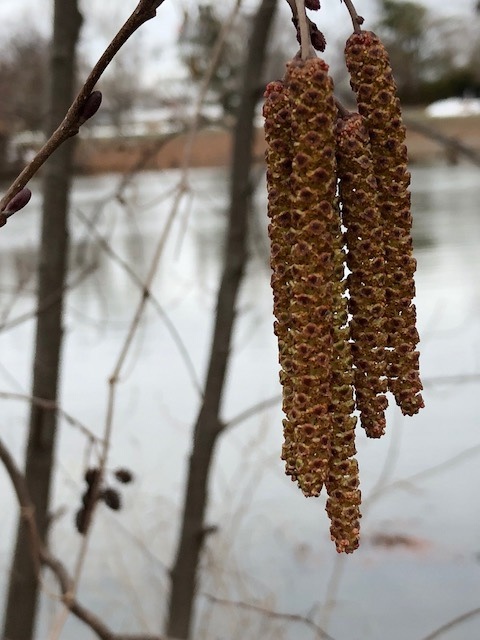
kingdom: Plantae
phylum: Tracheophyta
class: Magnoliopsida
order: Fagales
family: Betulaceae
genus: Alnus
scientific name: Alnus
